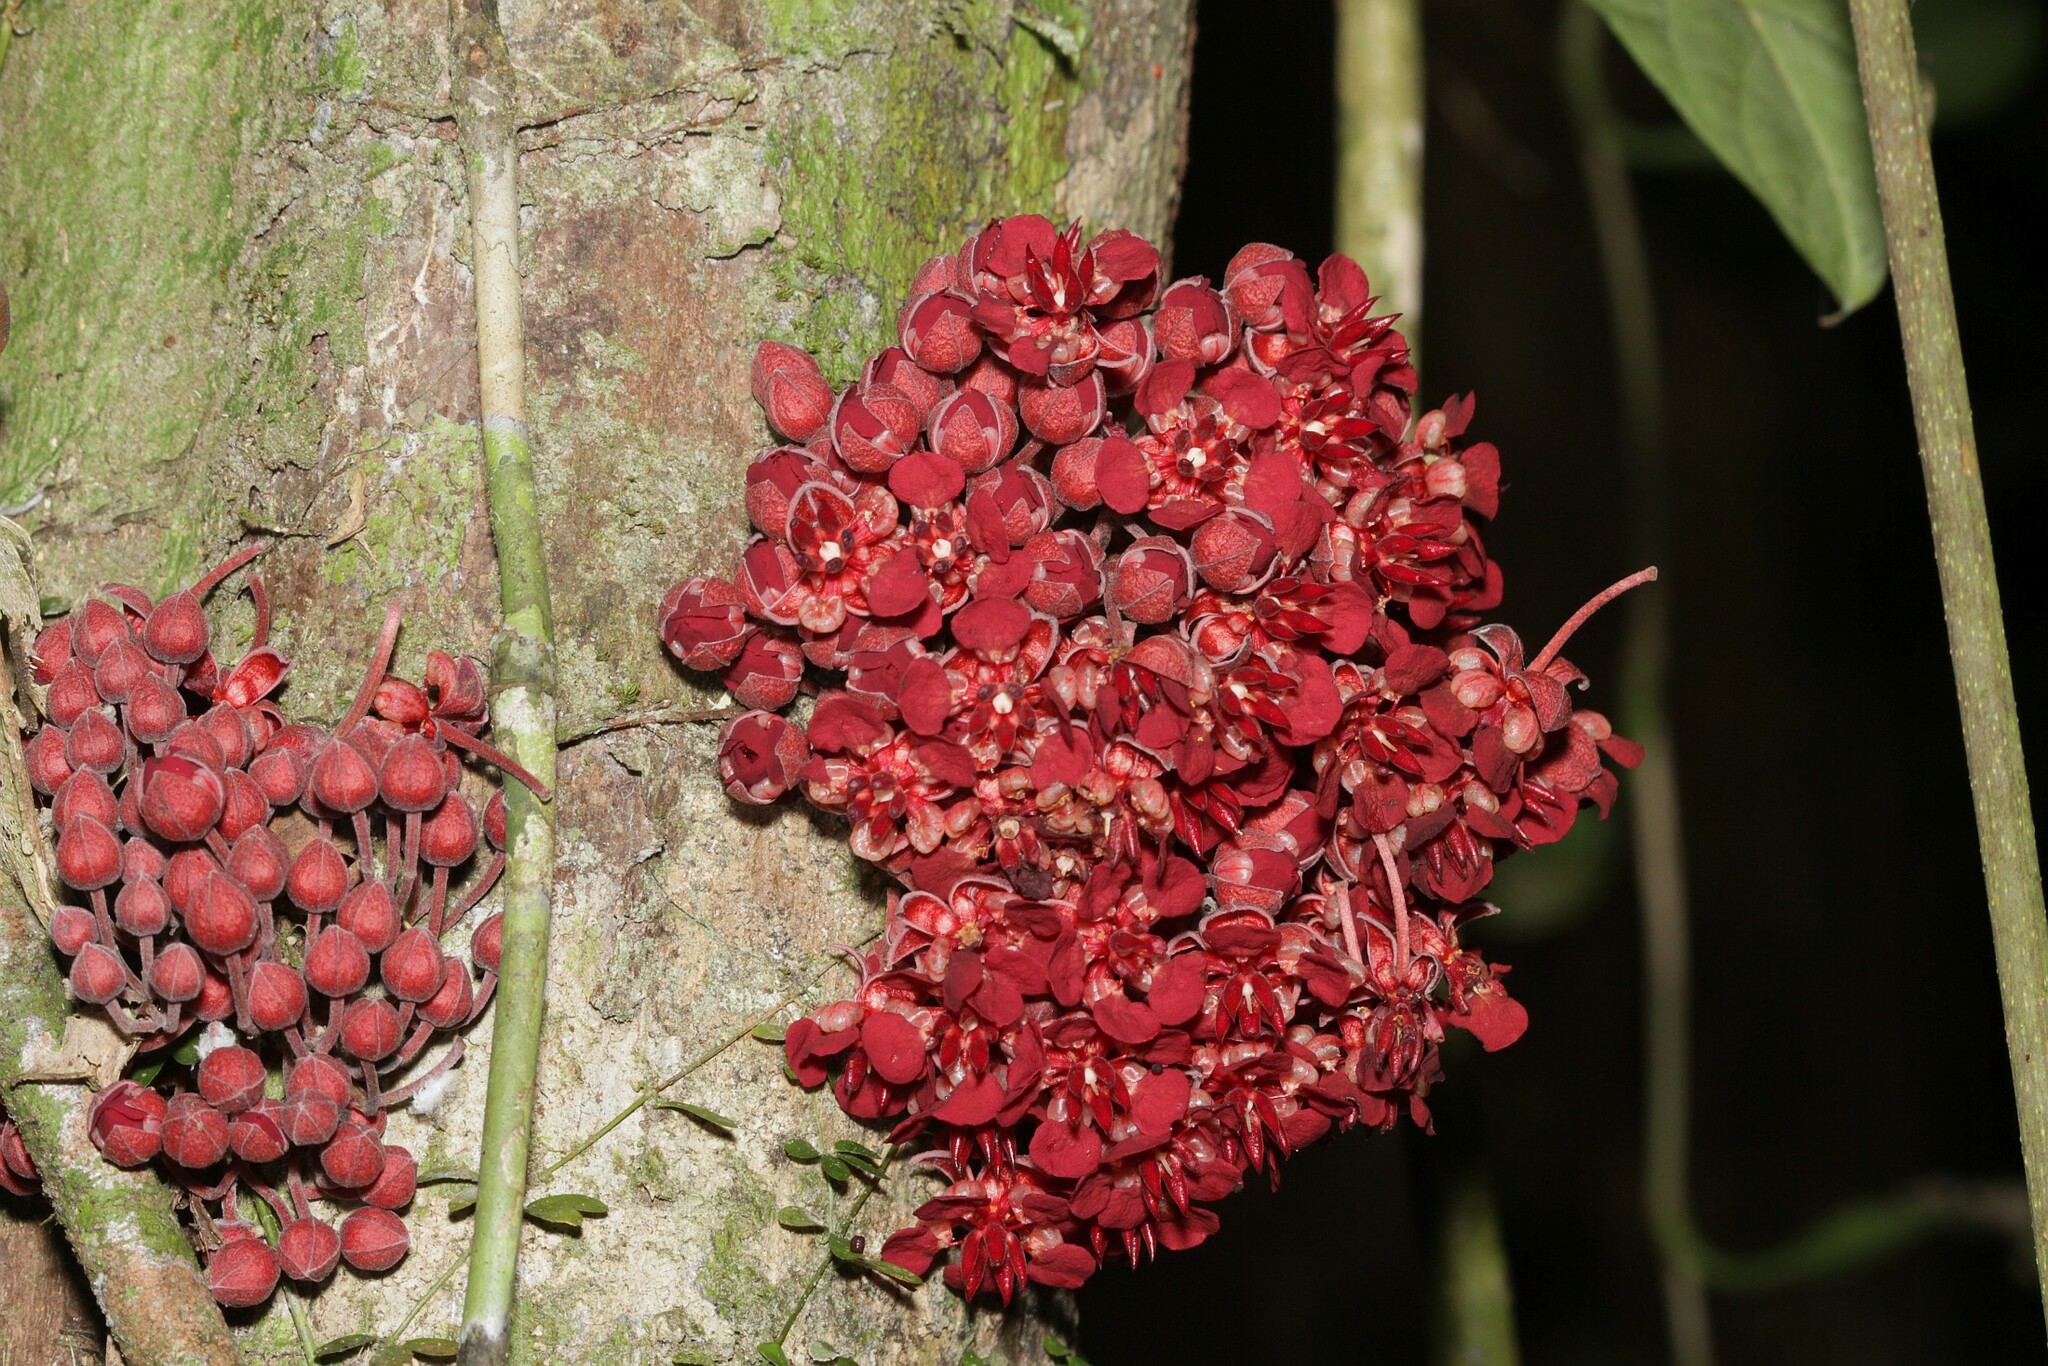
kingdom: Plantae
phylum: Tracheophyta
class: Magnoliopsida
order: Malvales
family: Malvaceae
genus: Theobroma
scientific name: Theobroma speciosum
